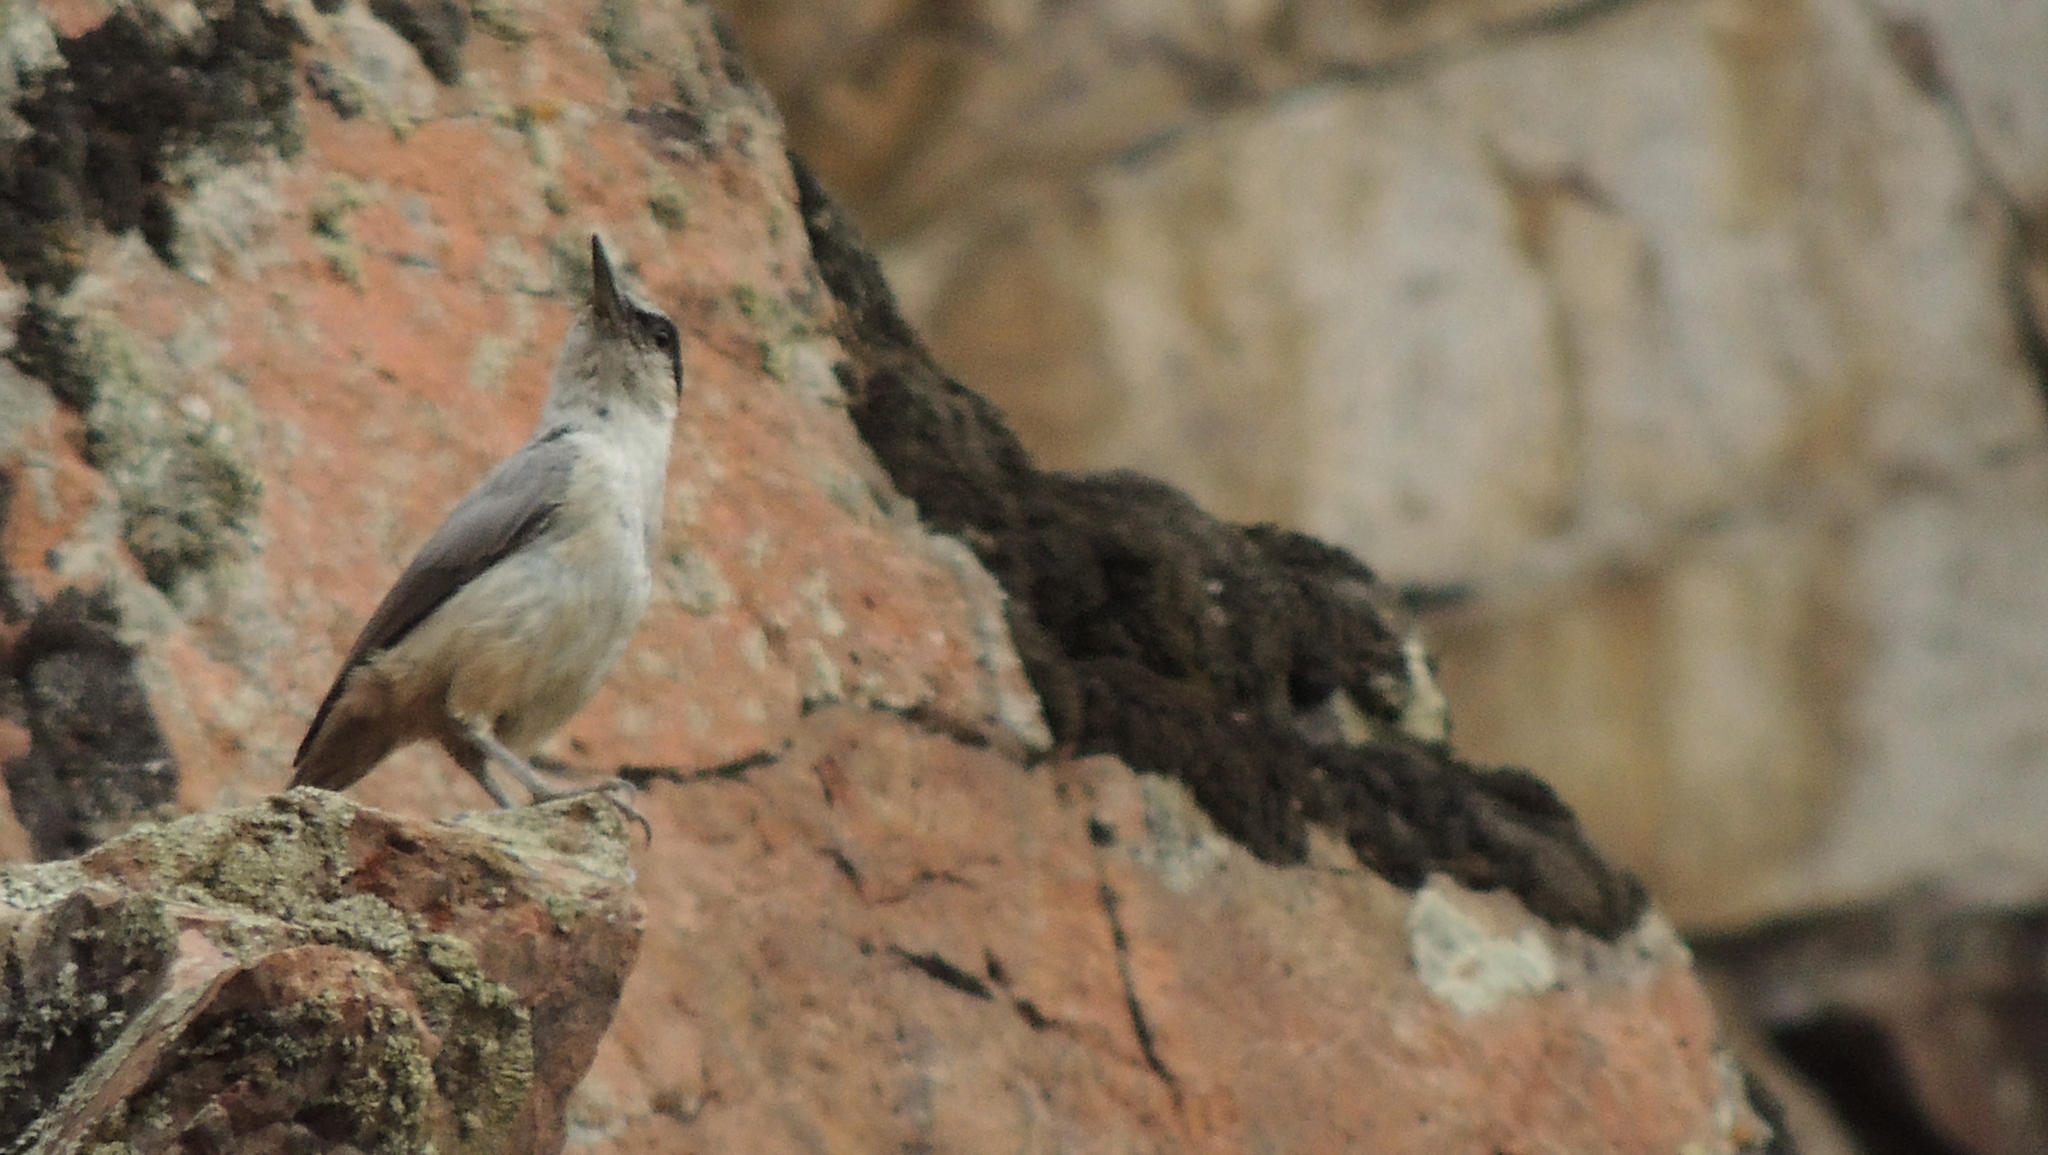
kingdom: Animalia
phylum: Chordata
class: Aves
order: Passeriformes
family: Sittidae
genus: Sitta
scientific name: Sitta tephronota
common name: Eastern rock nuthatch
